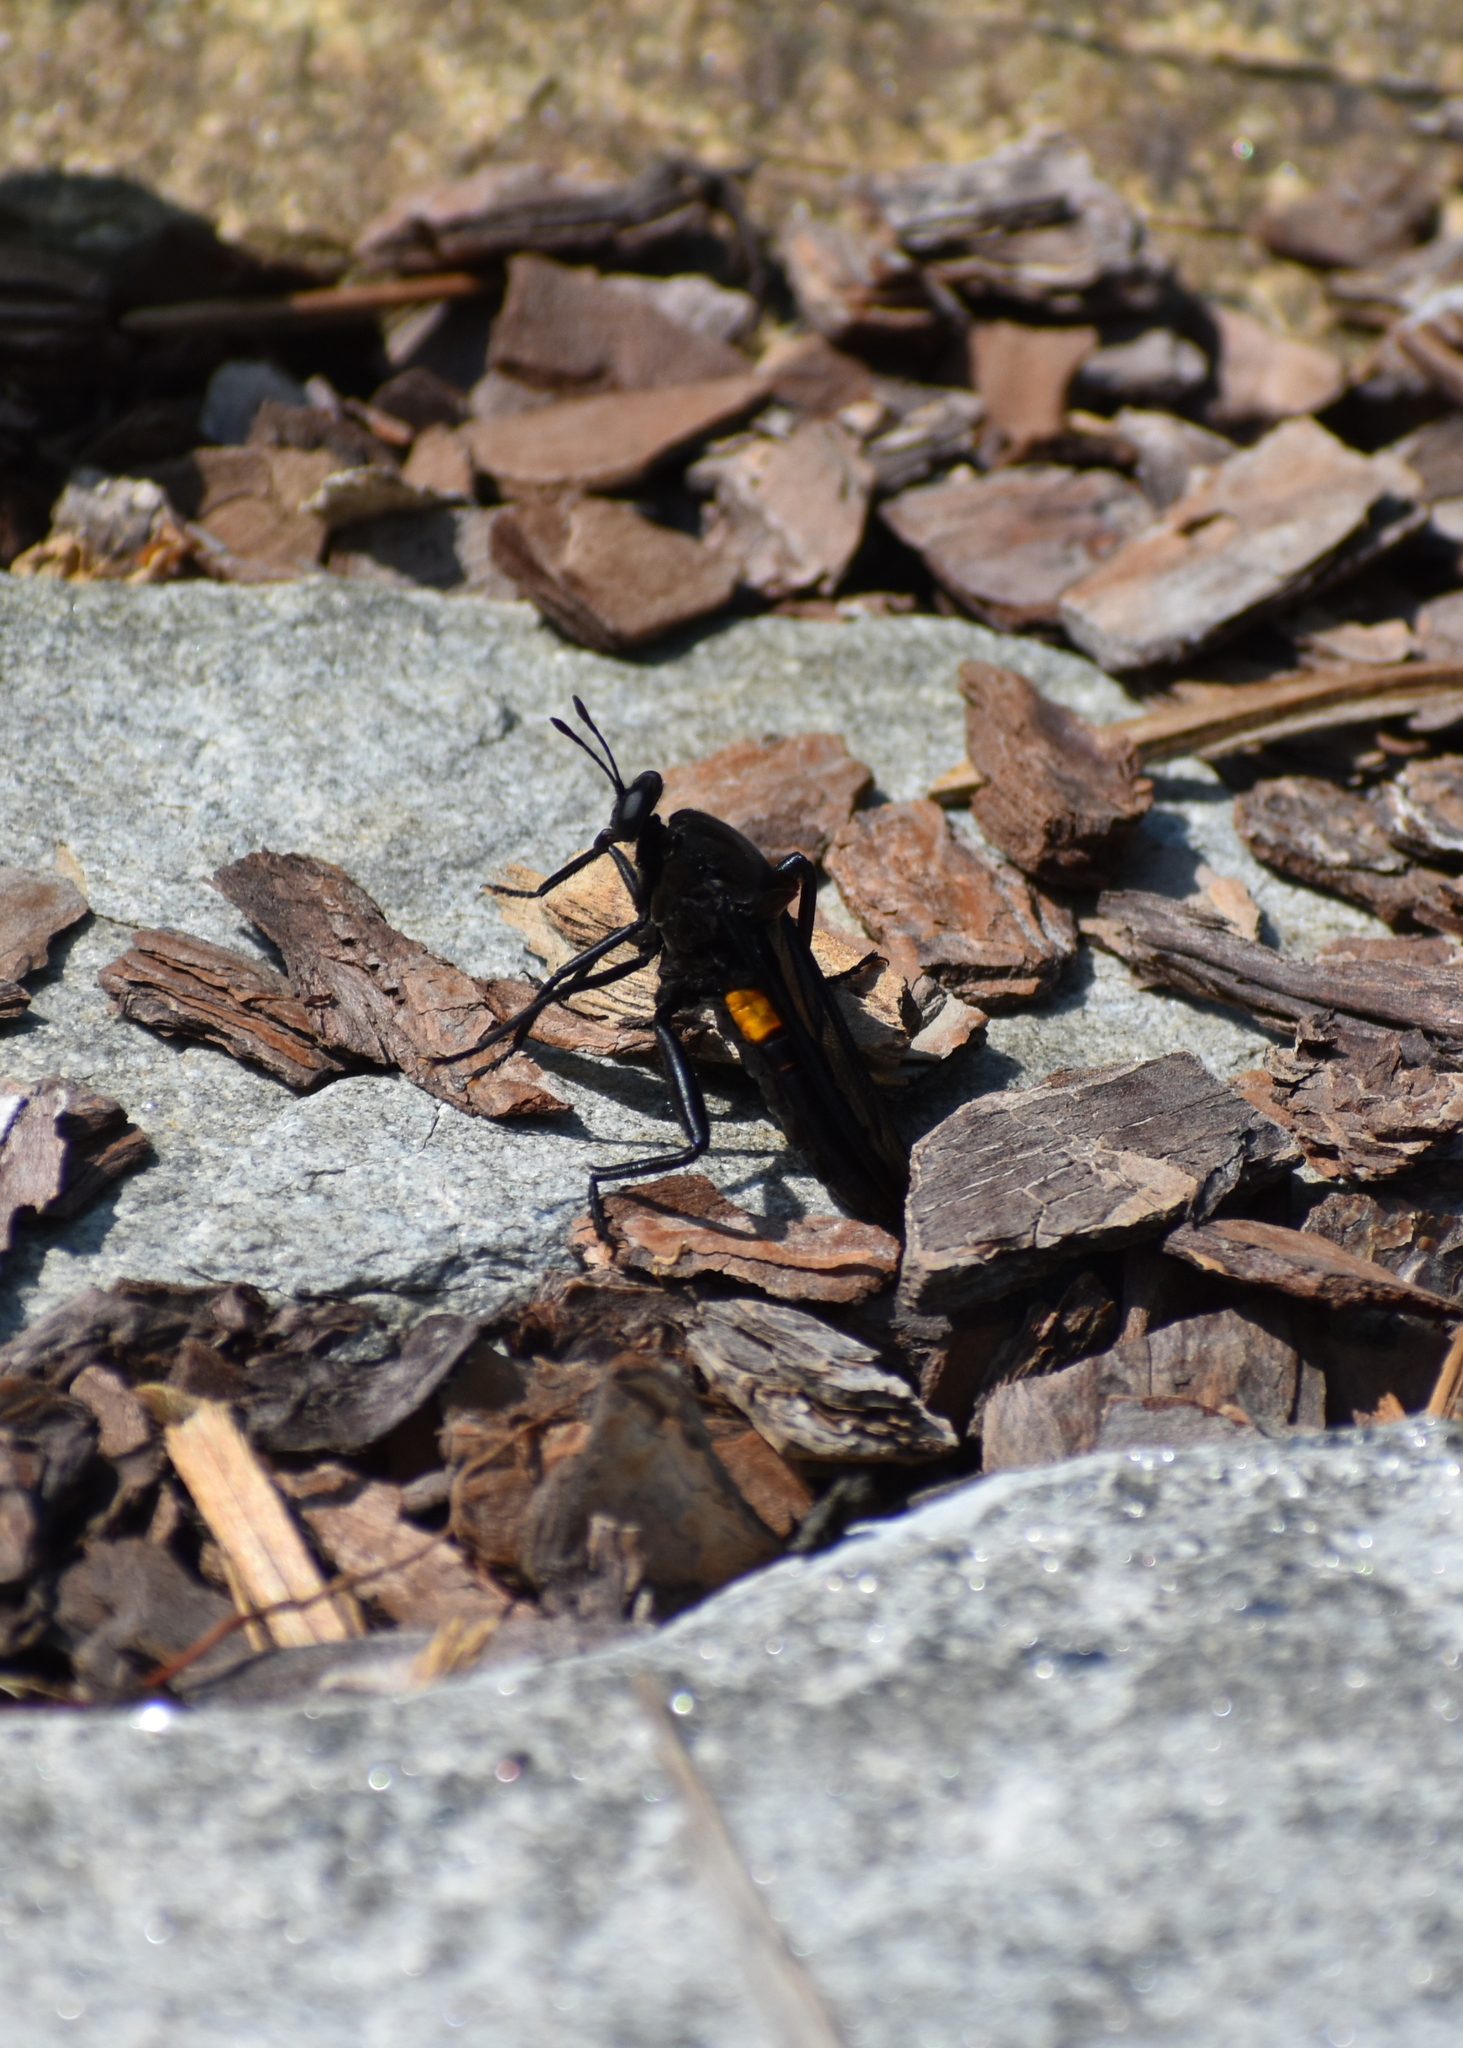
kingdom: Animalia
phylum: Arthropoda
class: Insecta
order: Diptera
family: Mydidae
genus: Mydas
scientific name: Mydas clavatus
